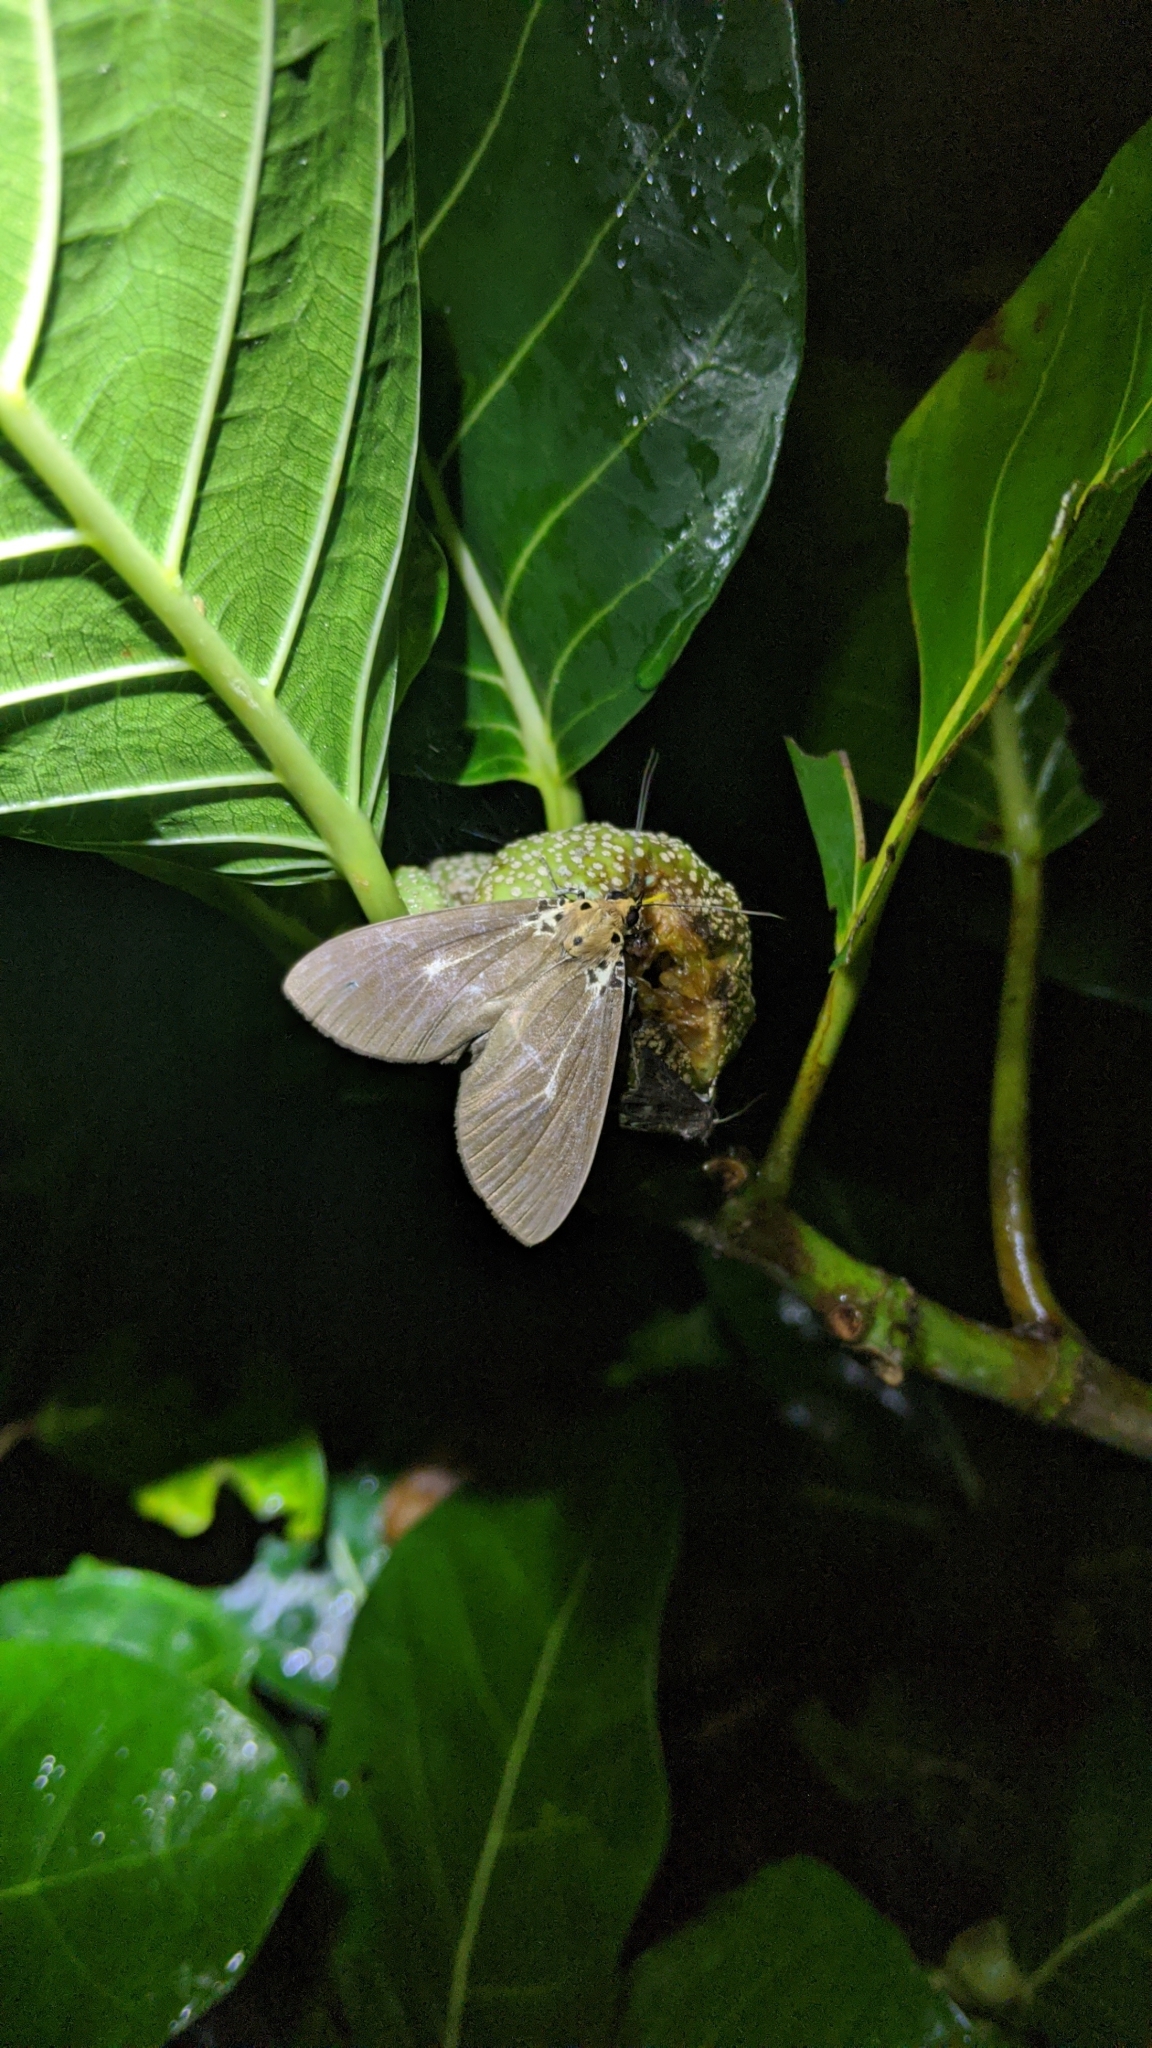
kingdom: Animalia
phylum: Arthropoda
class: Insecta
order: Lepidoptera
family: Erebidae
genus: Asota
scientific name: Asota heliconia
